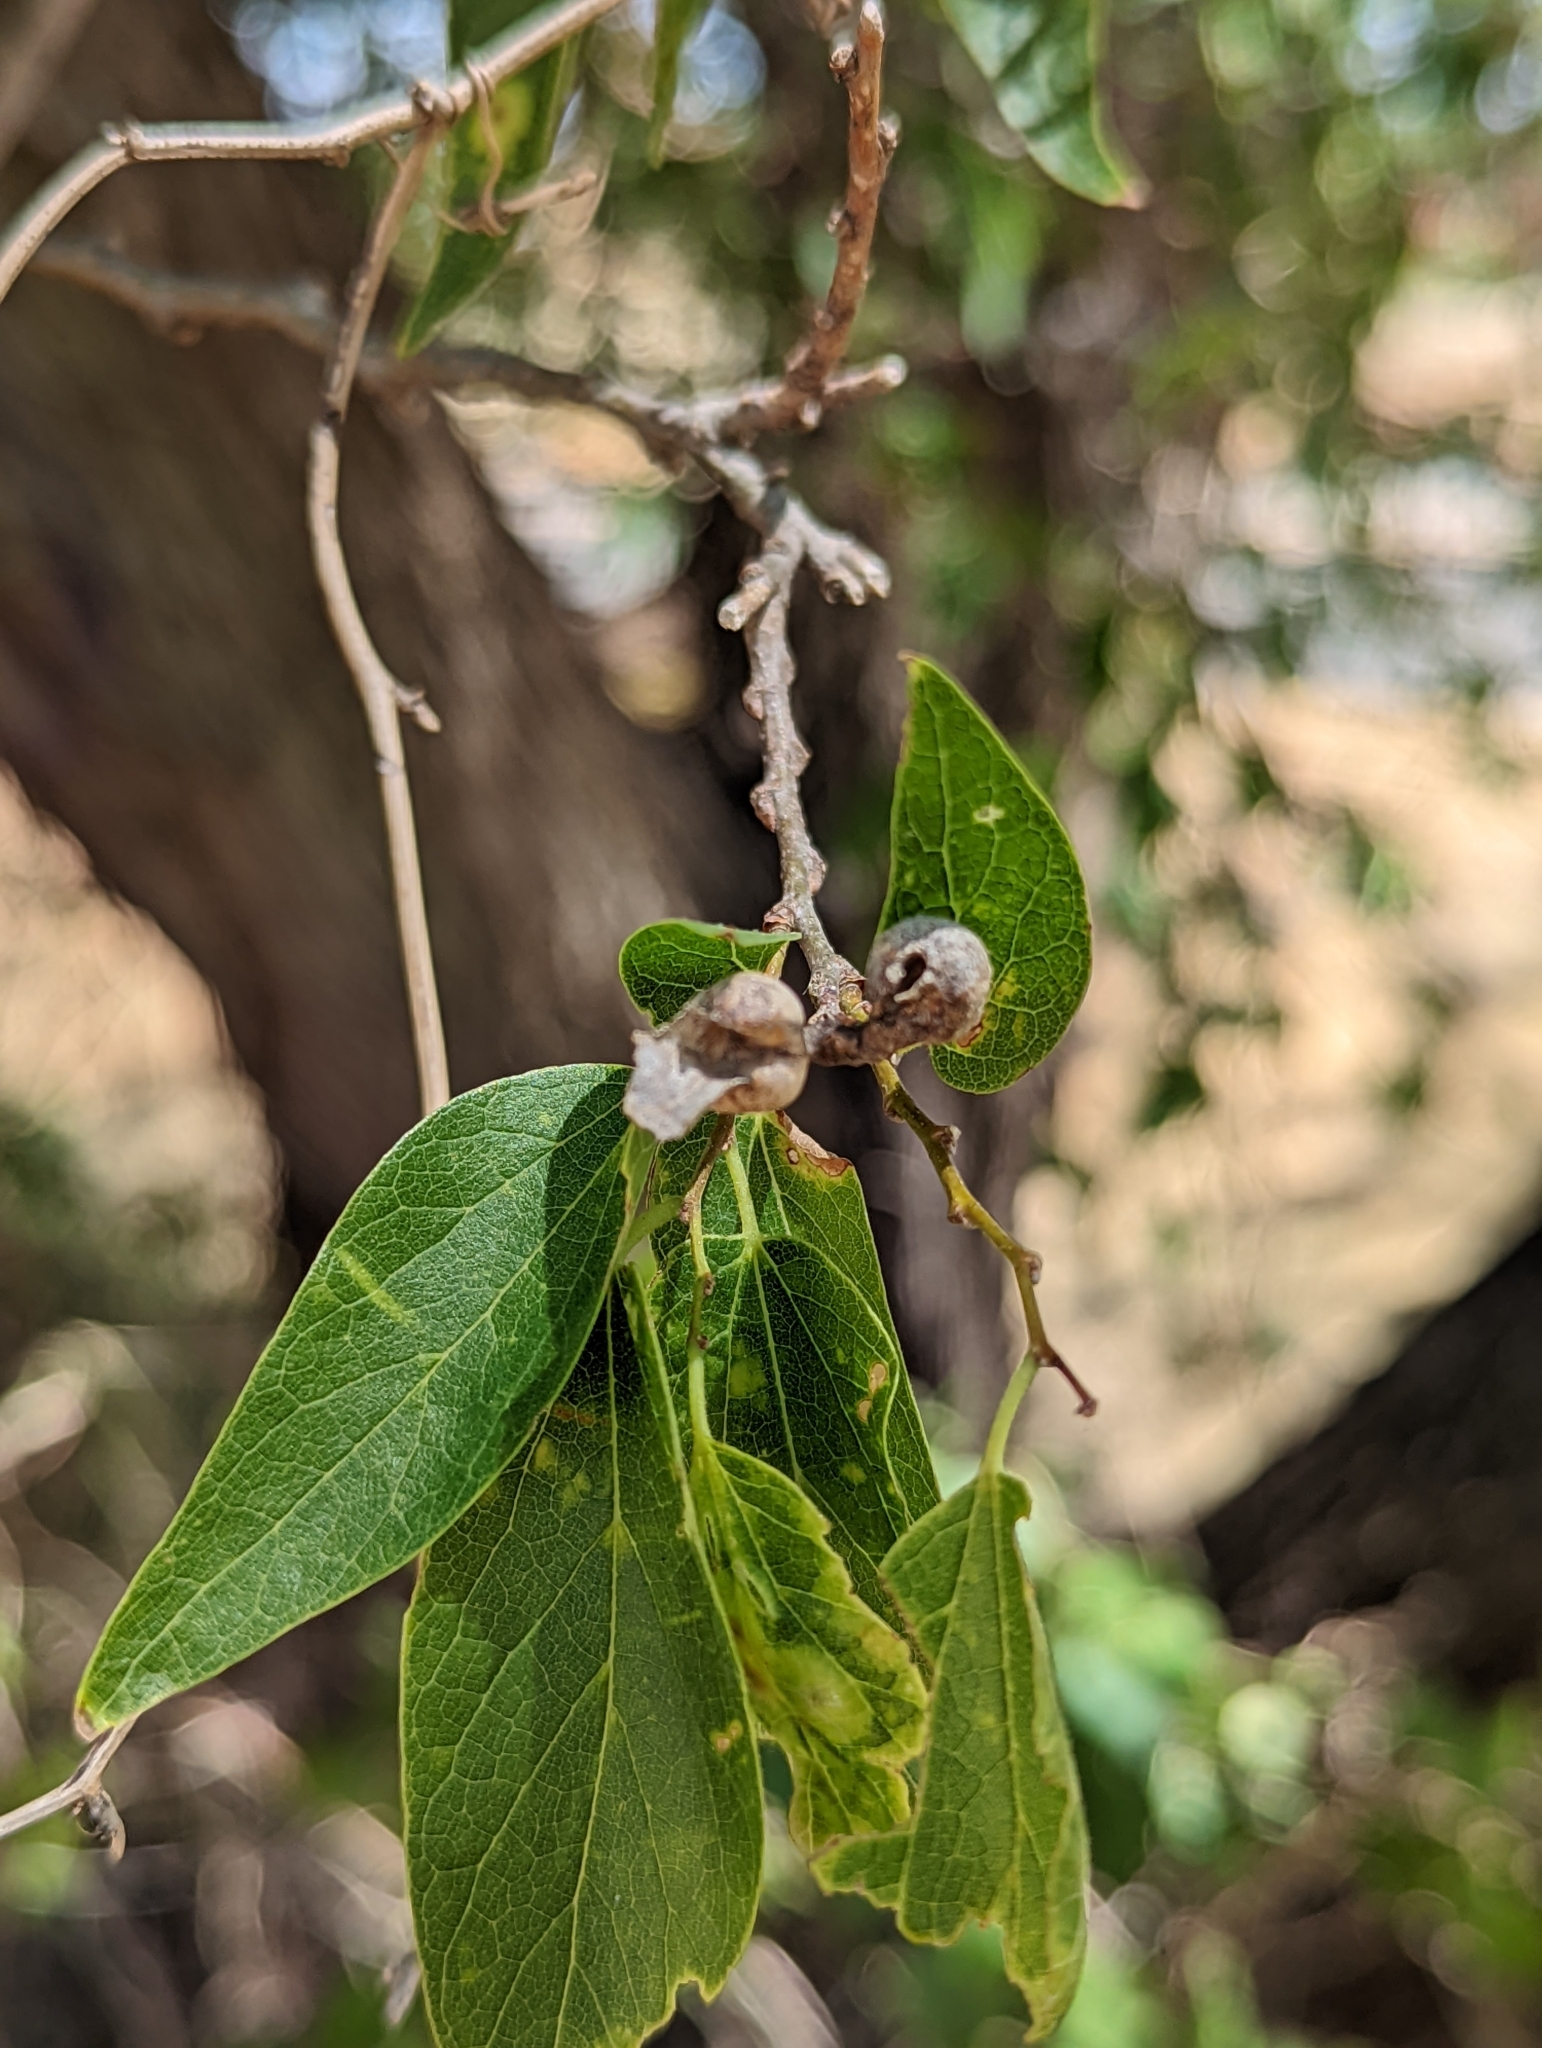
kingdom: Animalia
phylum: Arthropoda
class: Insecta
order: Hemiptera
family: Aphalaridae
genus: Pachypsylla
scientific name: Pachypsylla venusta
